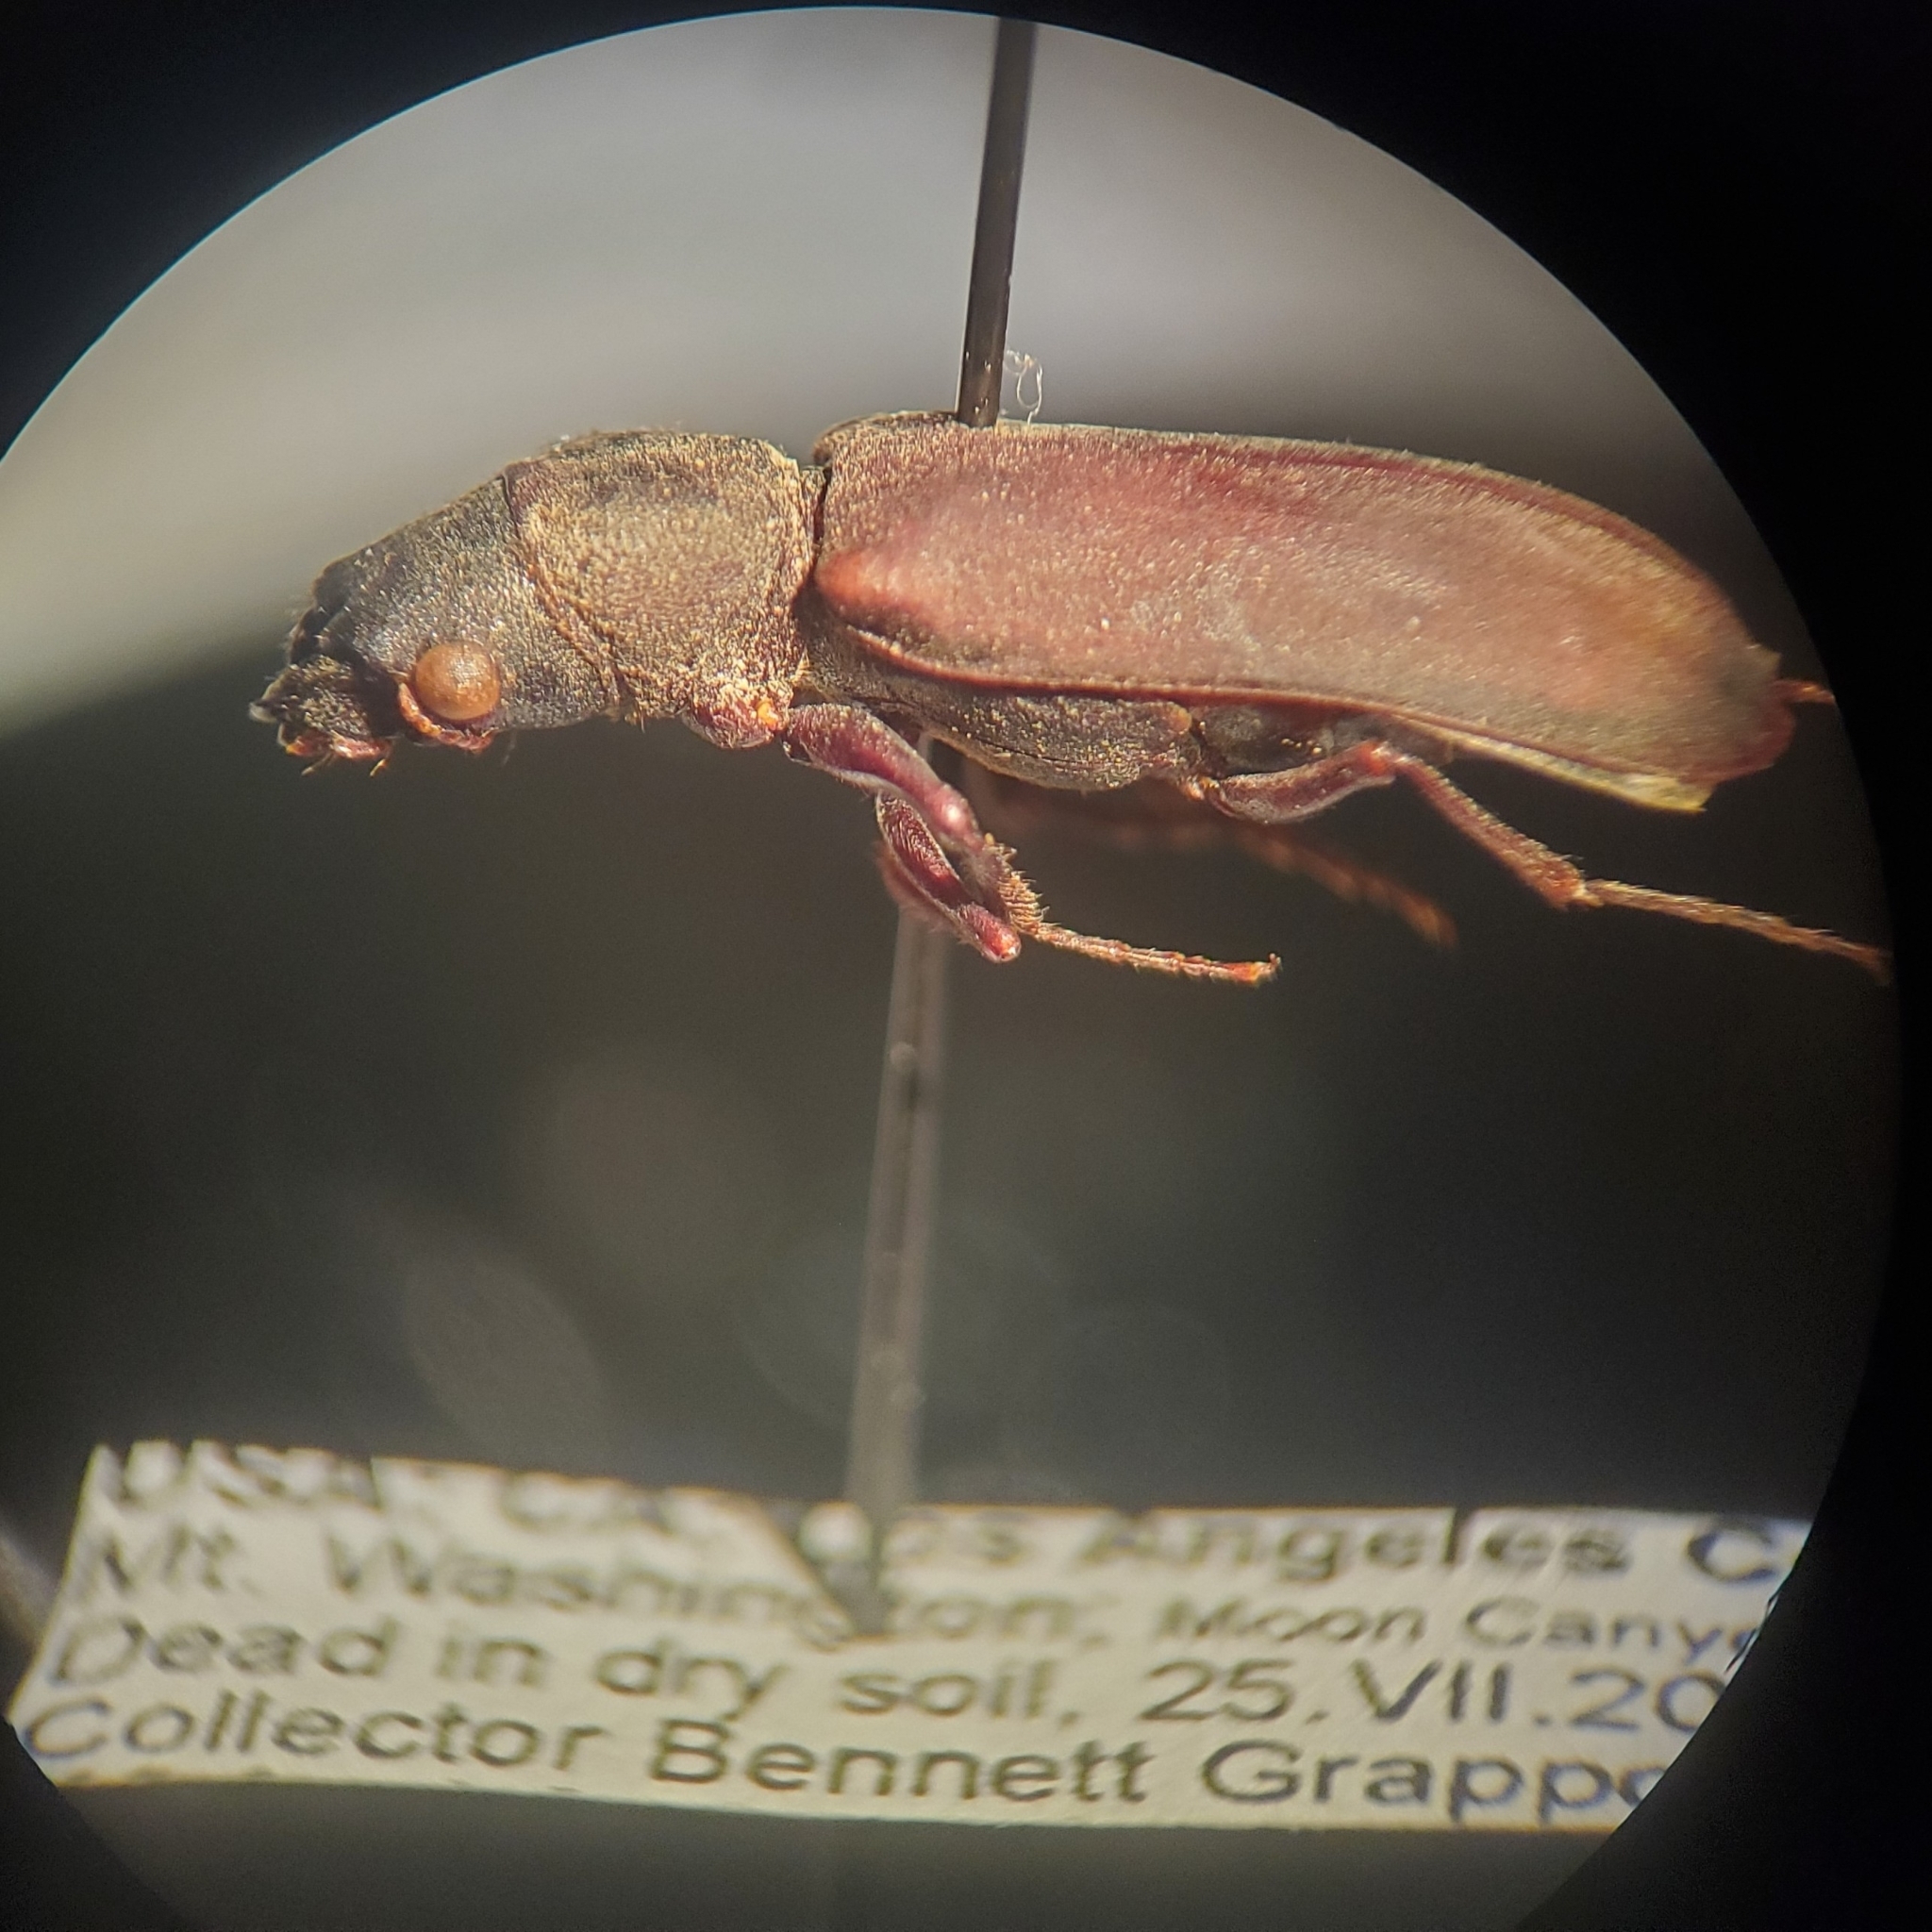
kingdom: Animalia
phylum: Arthropoda
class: Insecta
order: Coleoptera
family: Bostrichidae
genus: Polycaon
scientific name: Polycaon stoutii
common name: Powderpost beetle
